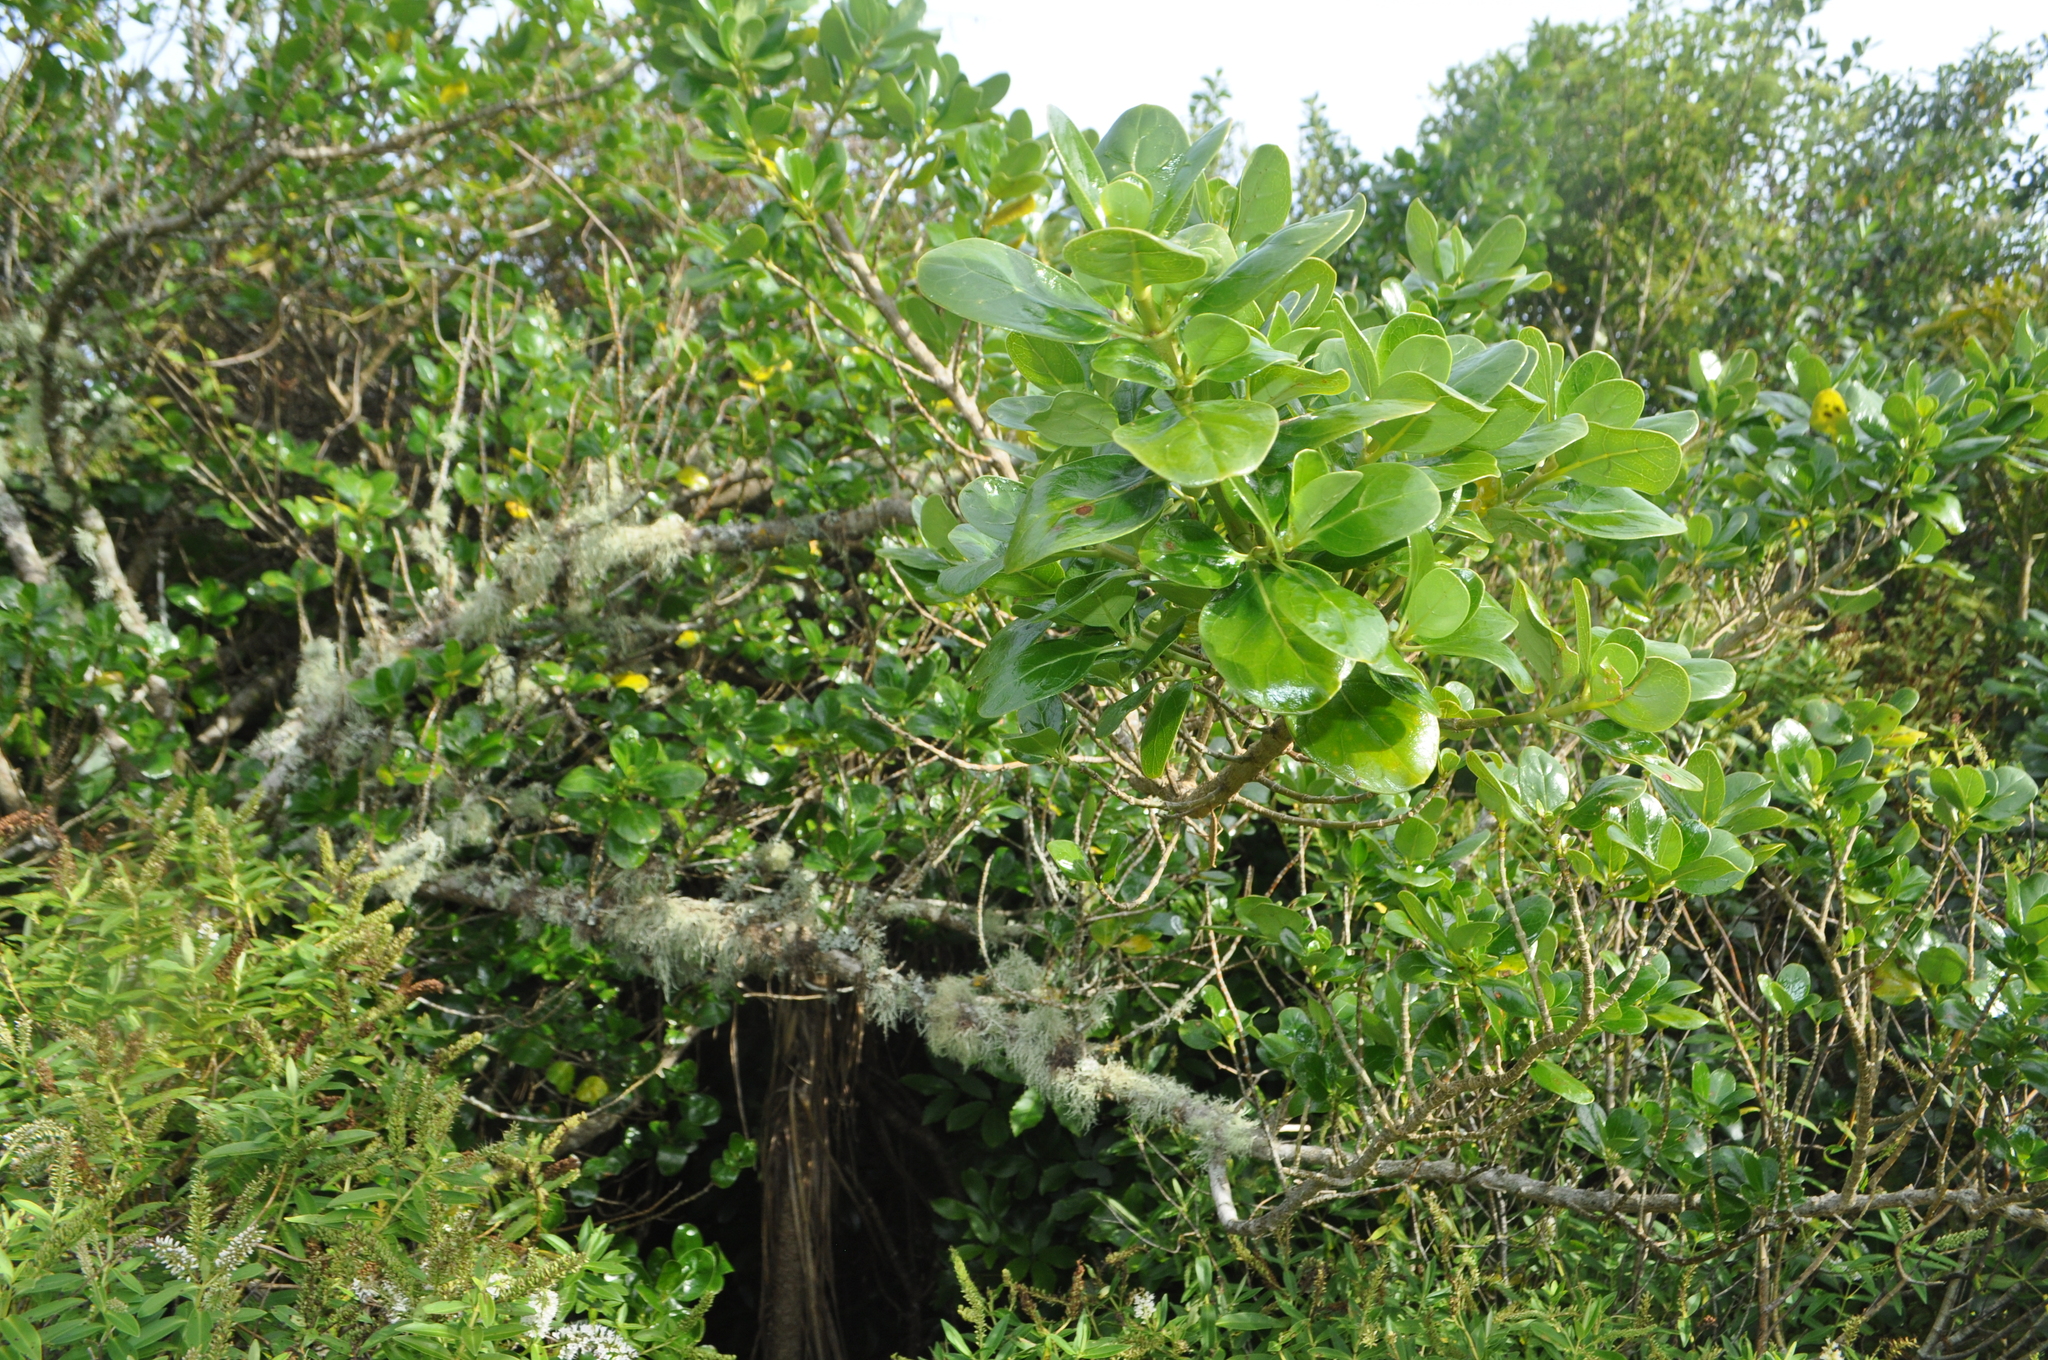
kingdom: Plantae
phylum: Tracheophyta
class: Magnoliopsida
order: Gentianales
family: Rubiaceae
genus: Coprosma
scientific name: Coprosma repens
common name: Tree bedstraw
